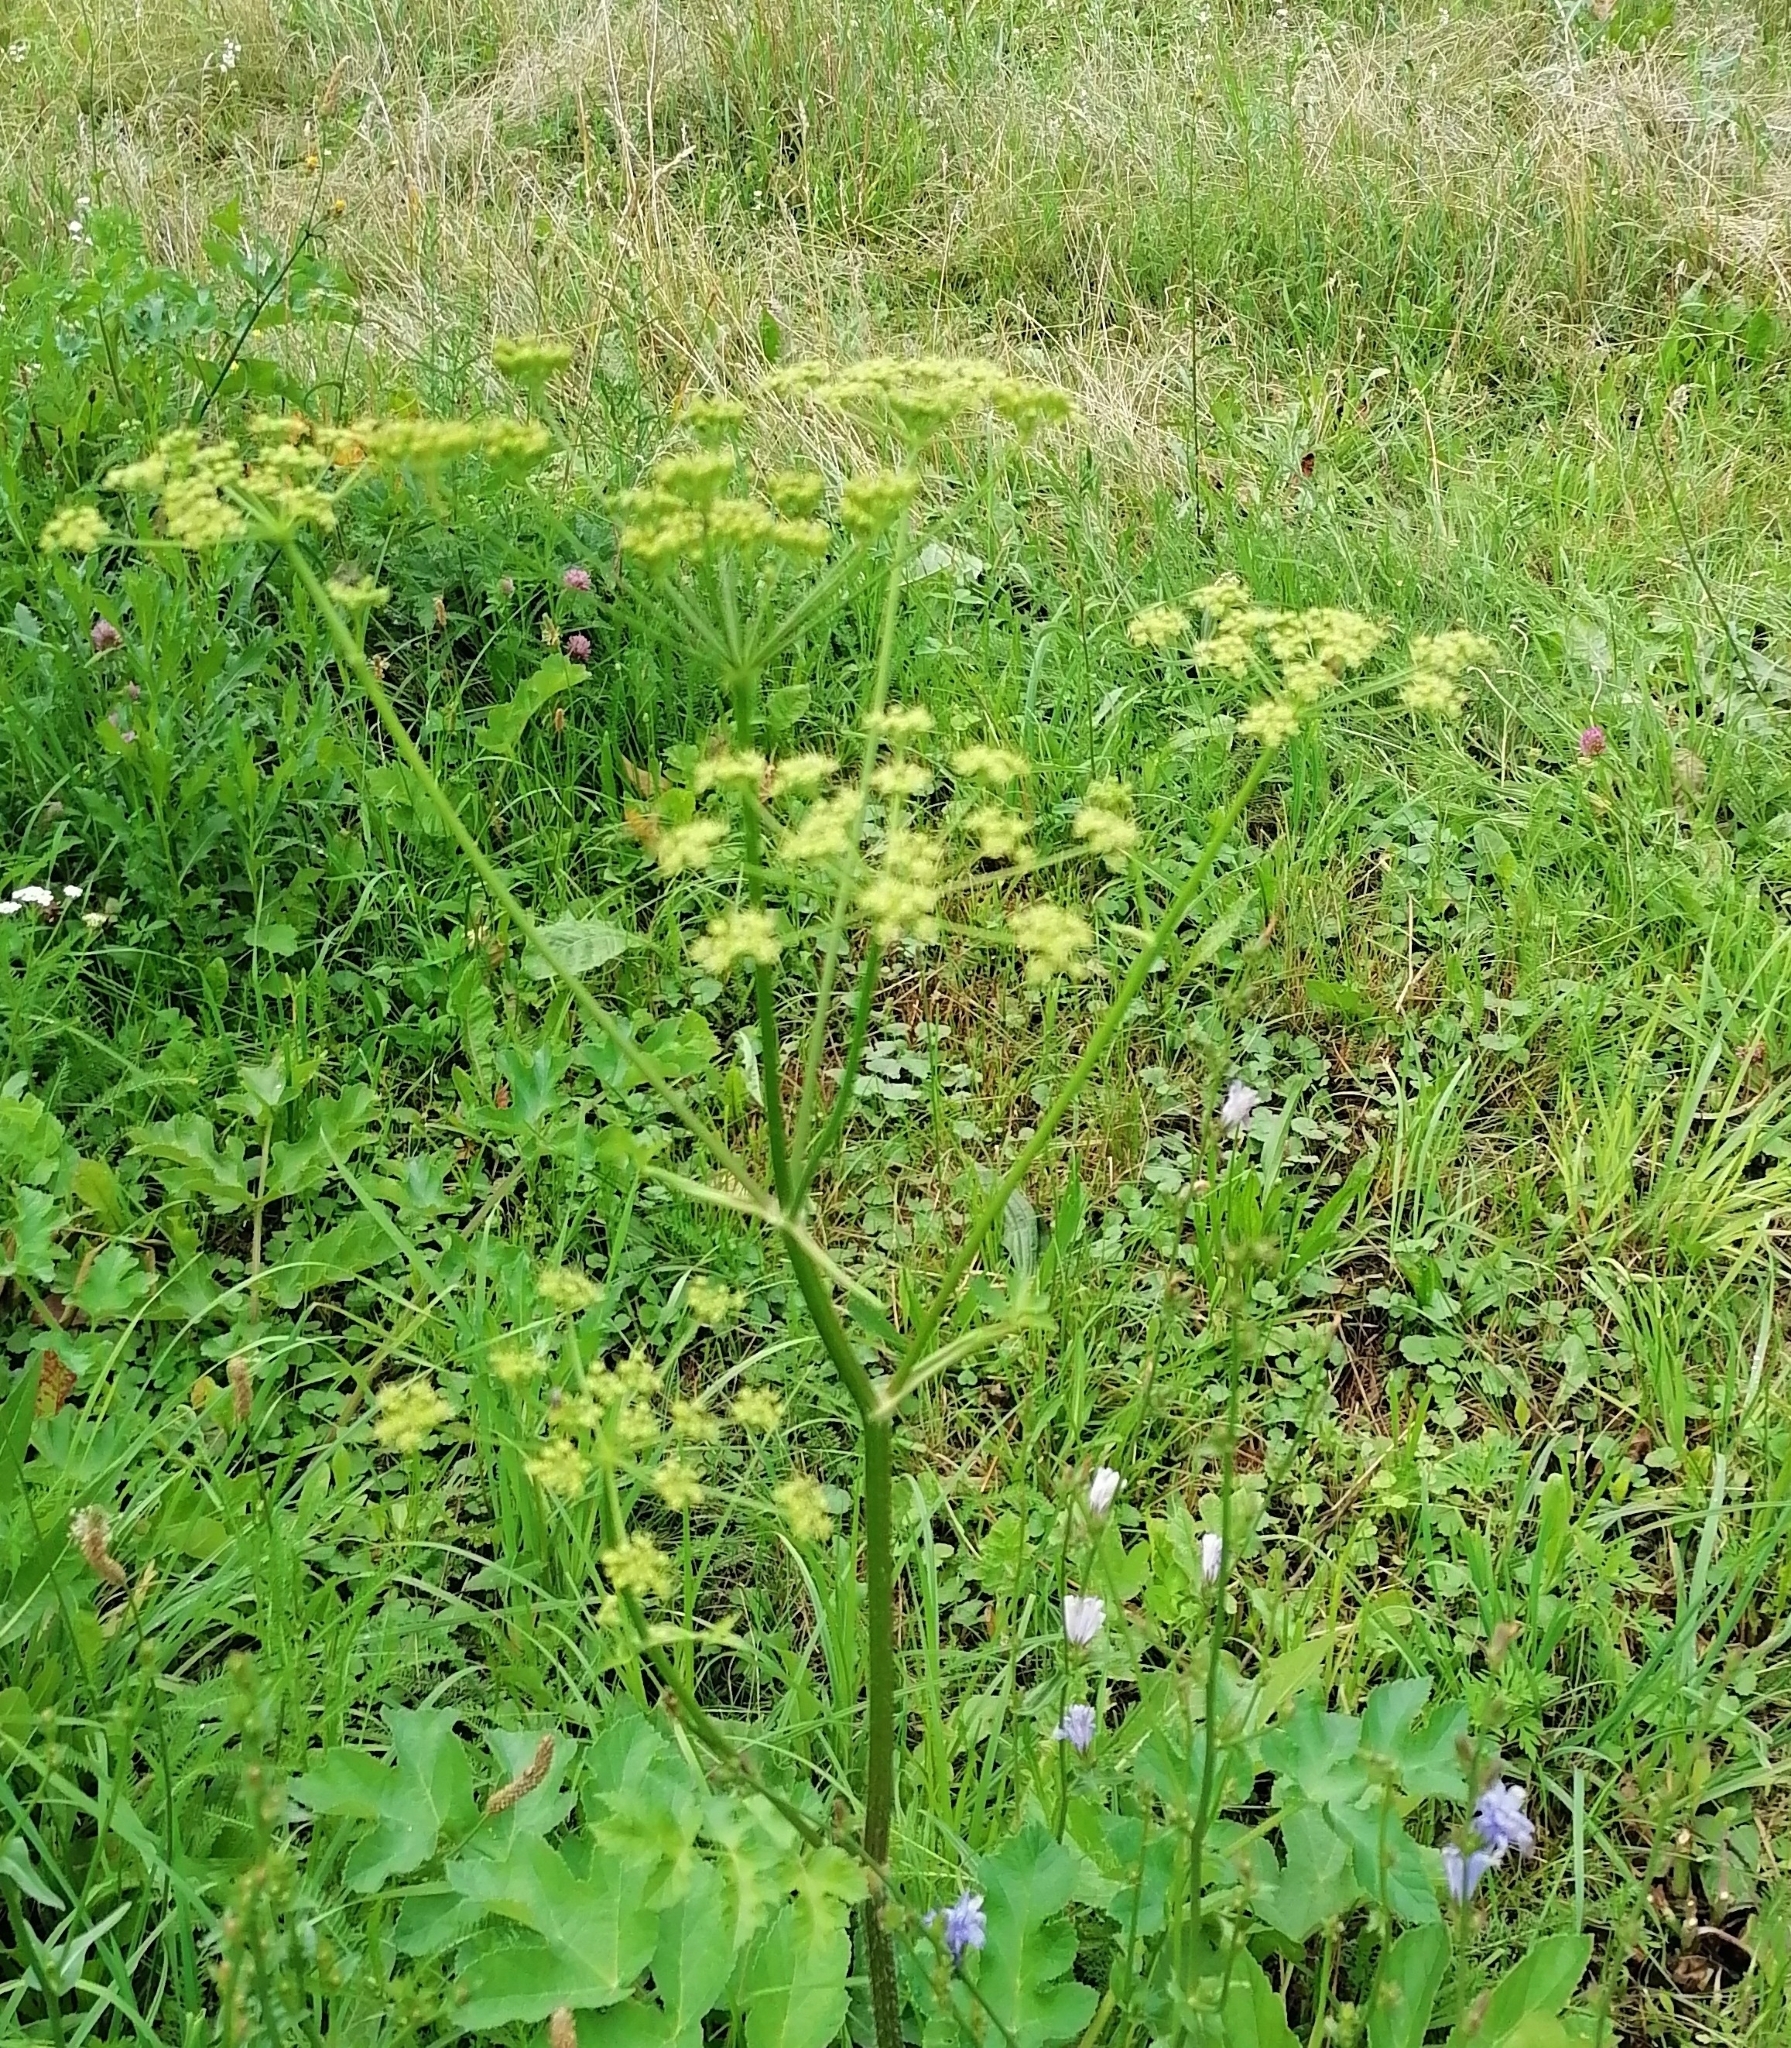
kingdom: Plantae
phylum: Tracheophyta
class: Magnoliopsida
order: Apiales
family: Apiaceae
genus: Heracleum
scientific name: Heracleum sphondylium
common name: Hogweed
